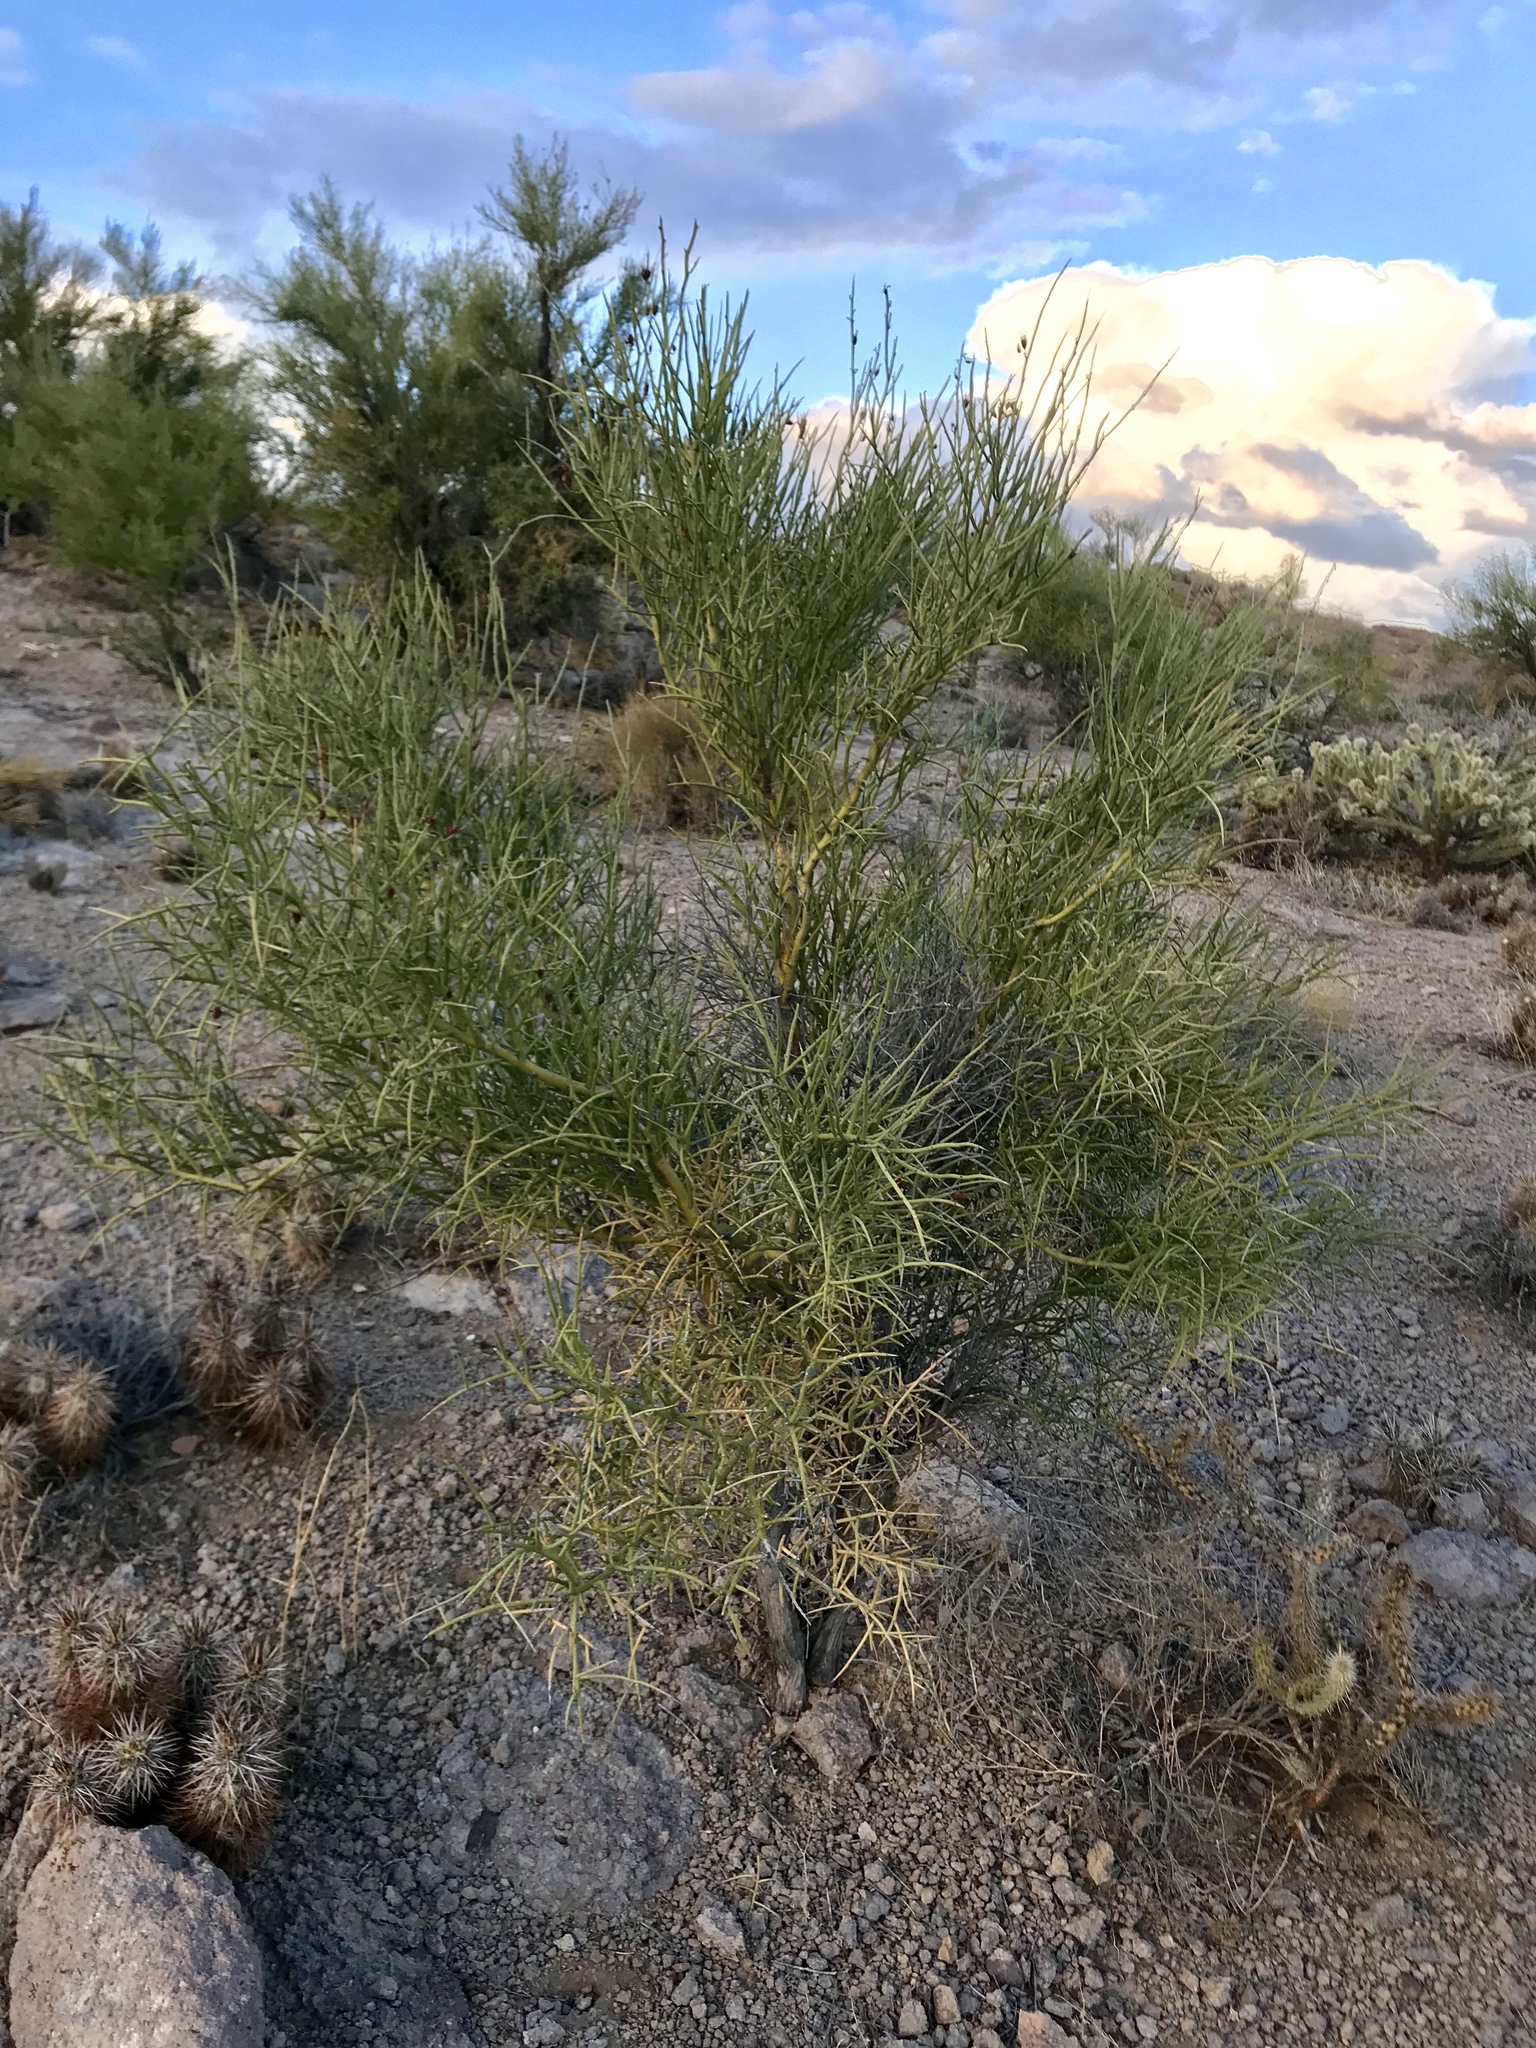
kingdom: Plantae
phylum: Tracheophyta
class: Magnoliopsida
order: Celastrales
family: Celastraceae
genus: Canotia
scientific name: Canotia holacantha
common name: Crucifixion thorns
